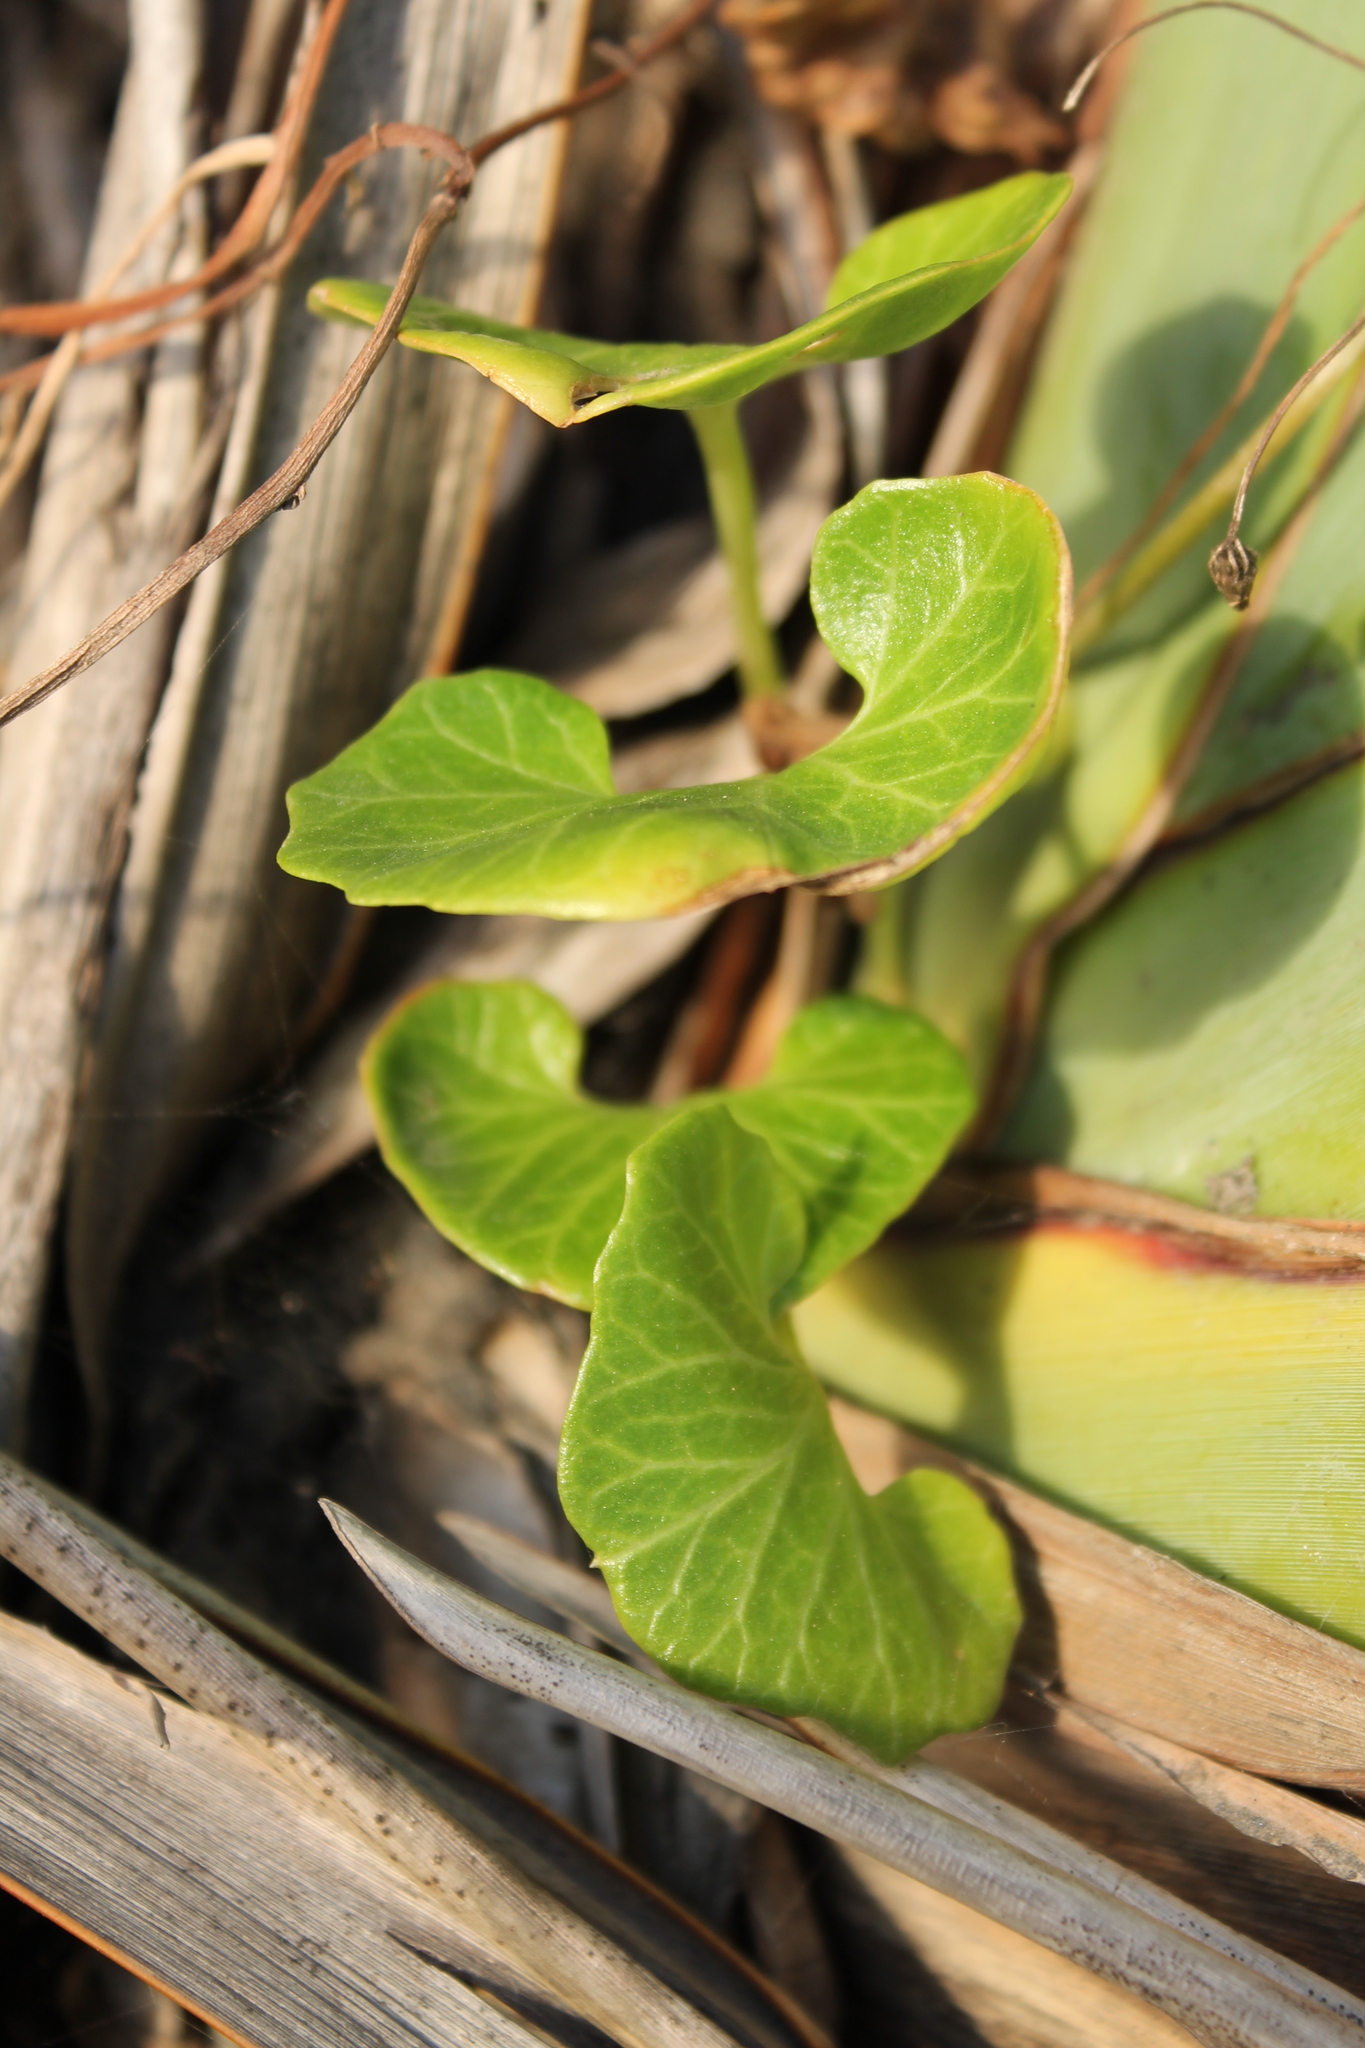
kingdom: Plantae
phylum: Tracheophyta
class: Magnoliopsida
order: Solanales
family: Convolvulaceae
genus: Calystegia
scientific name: Calystegia soldanella
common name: Sea bindweed
